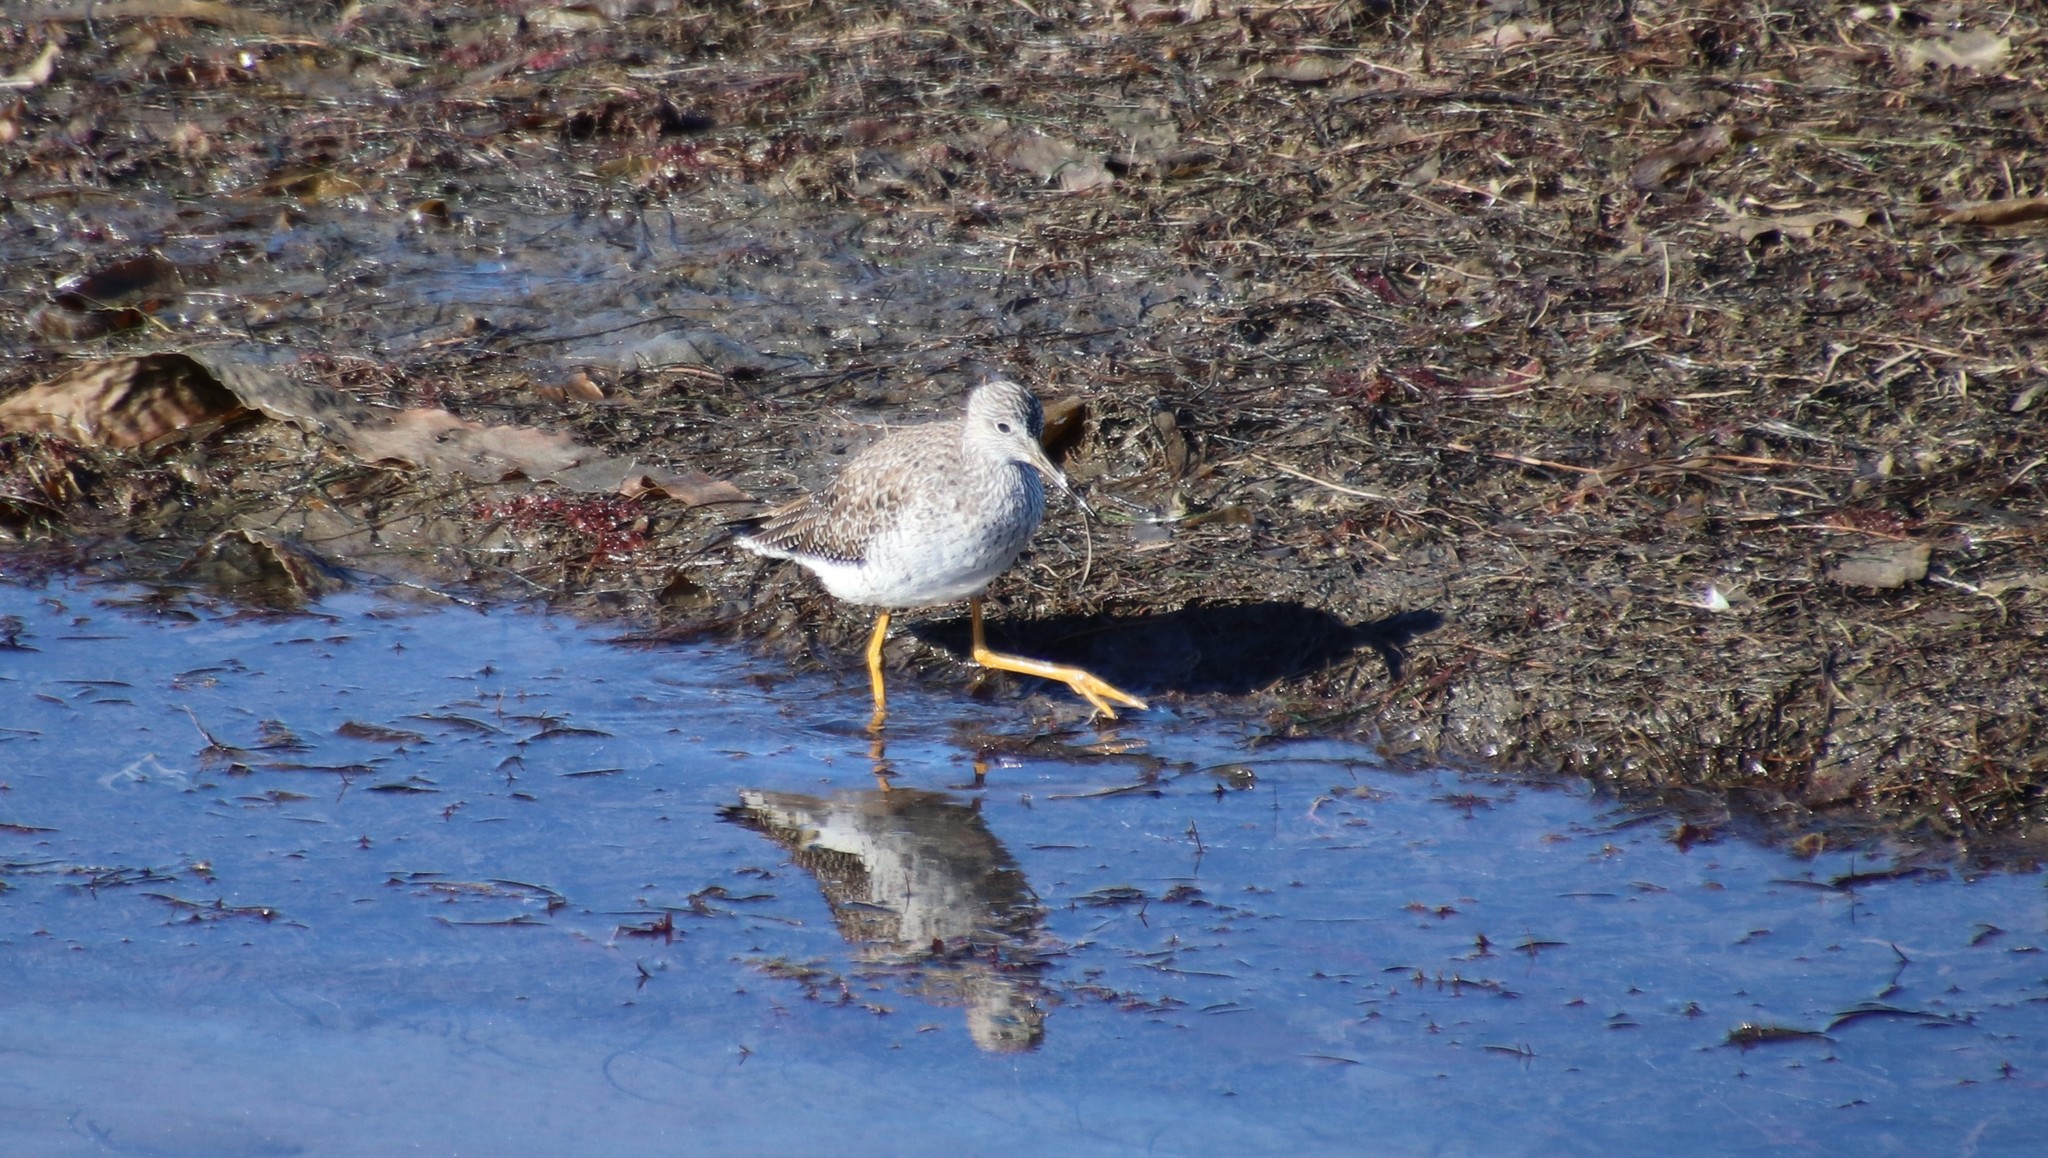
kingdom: Animalia
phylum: Chordata
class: Aves
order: Charadriiformes
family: Scolopacidae
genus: Tringa
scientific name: Tringa melanoleuca
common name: Greater yellowlegs
